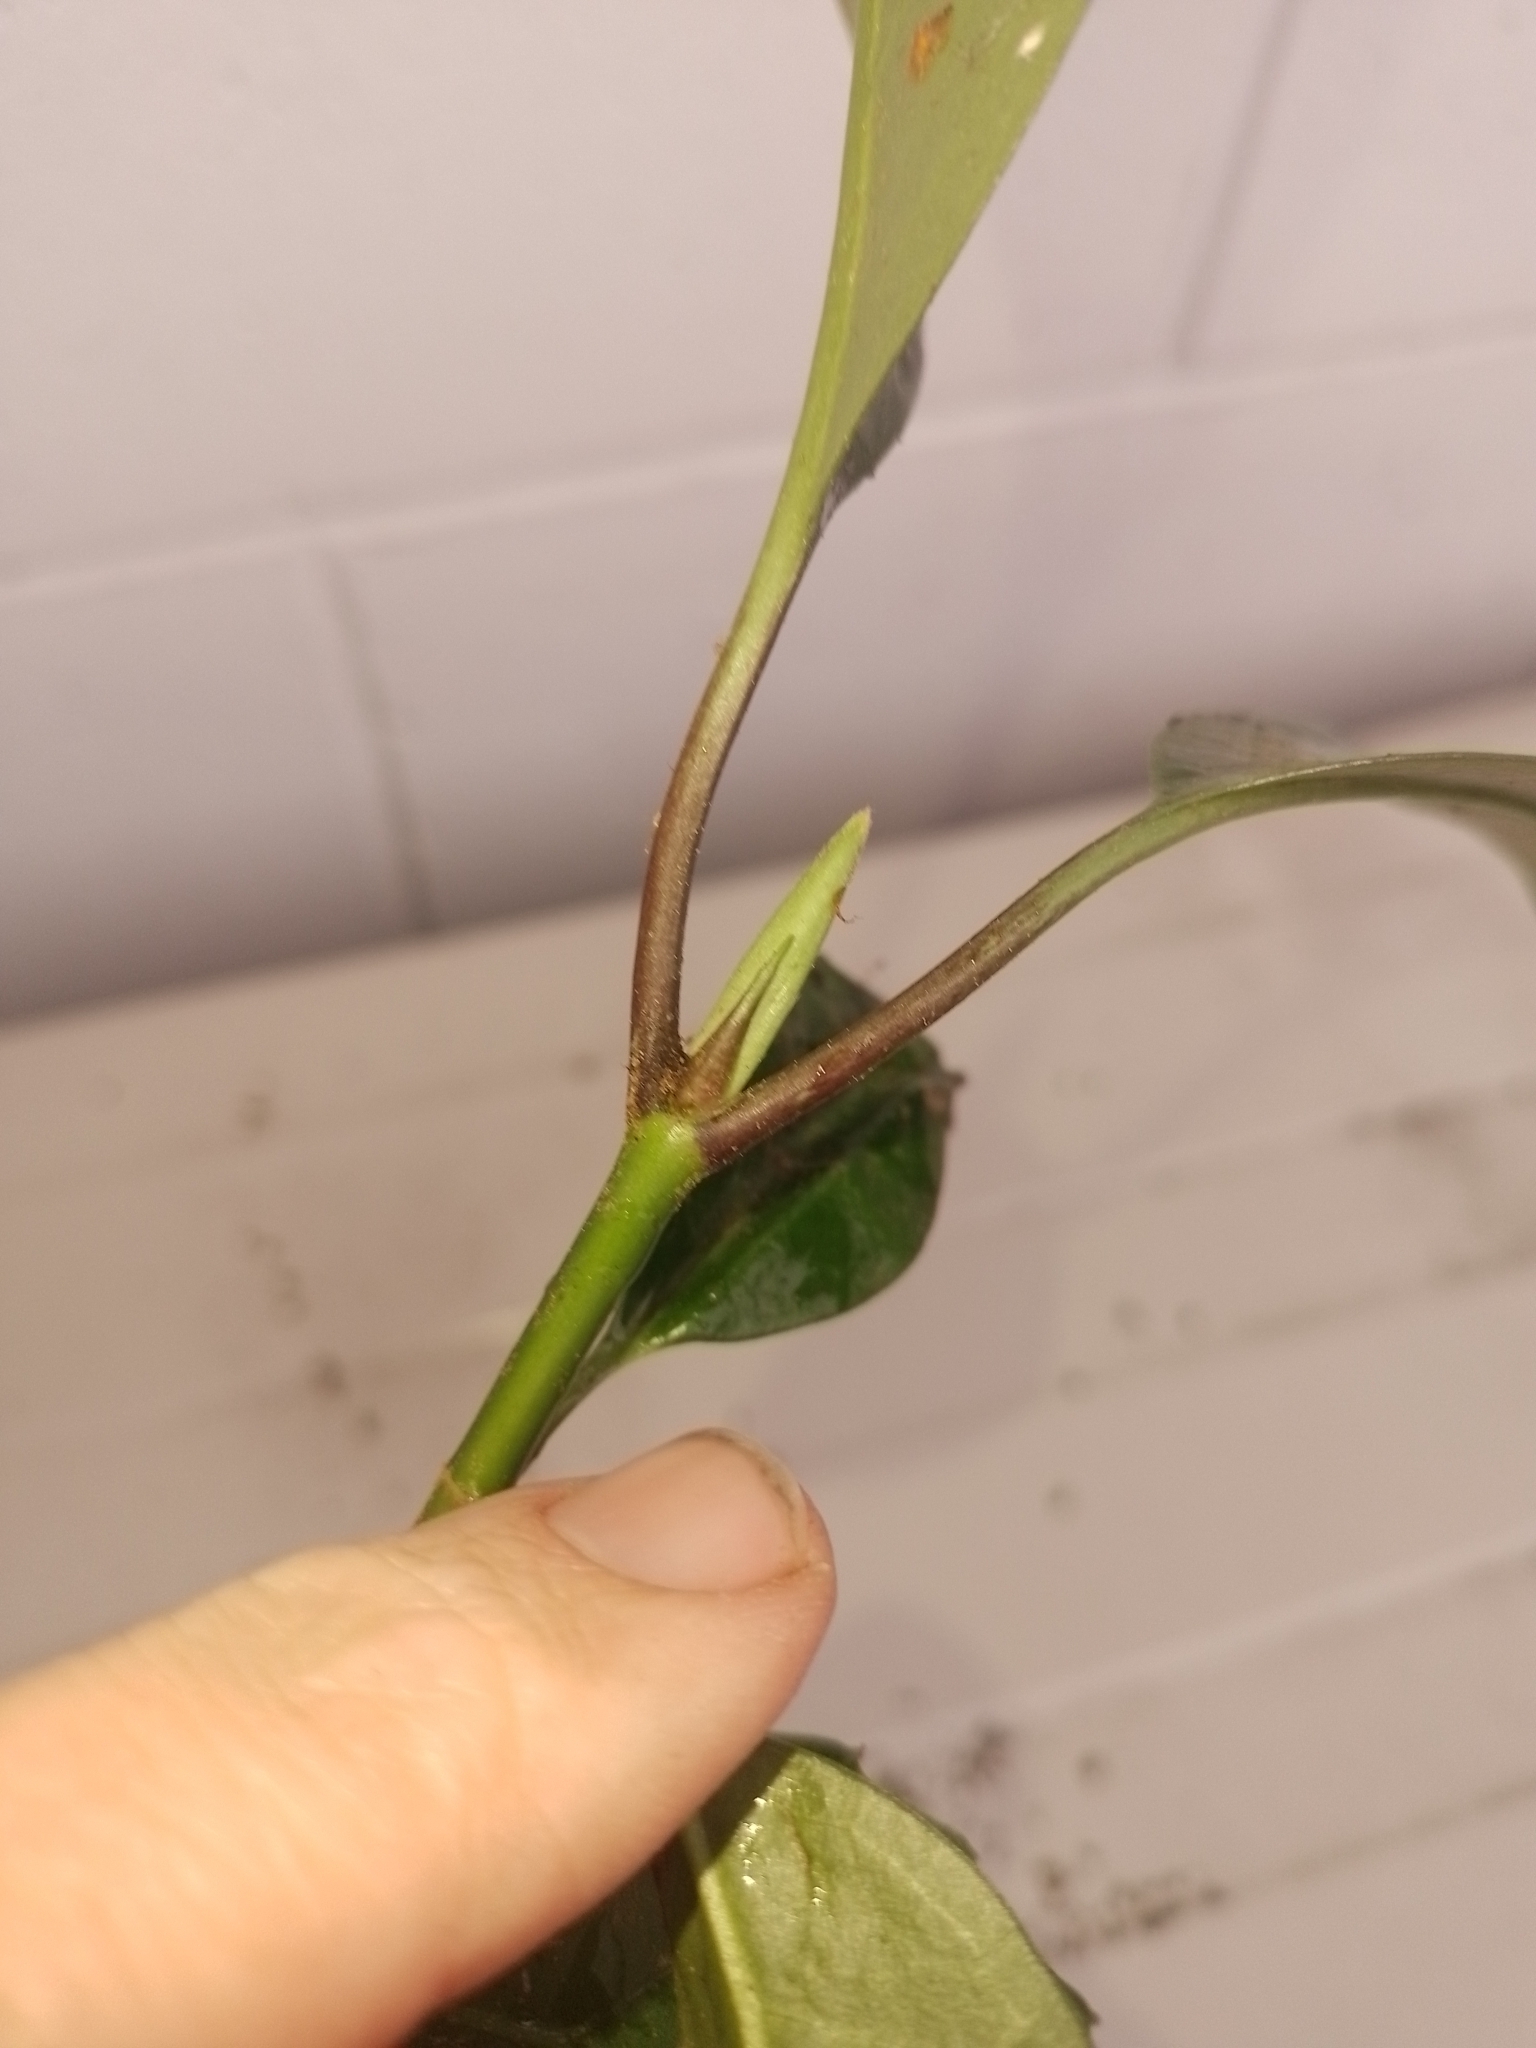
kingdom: Plantae
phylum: Tracheophyta
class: Magnoliopsida
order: Garryales
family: Garryaceae
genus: Aucuba
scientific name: Aucuba japonica
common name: Spotted-laurel
